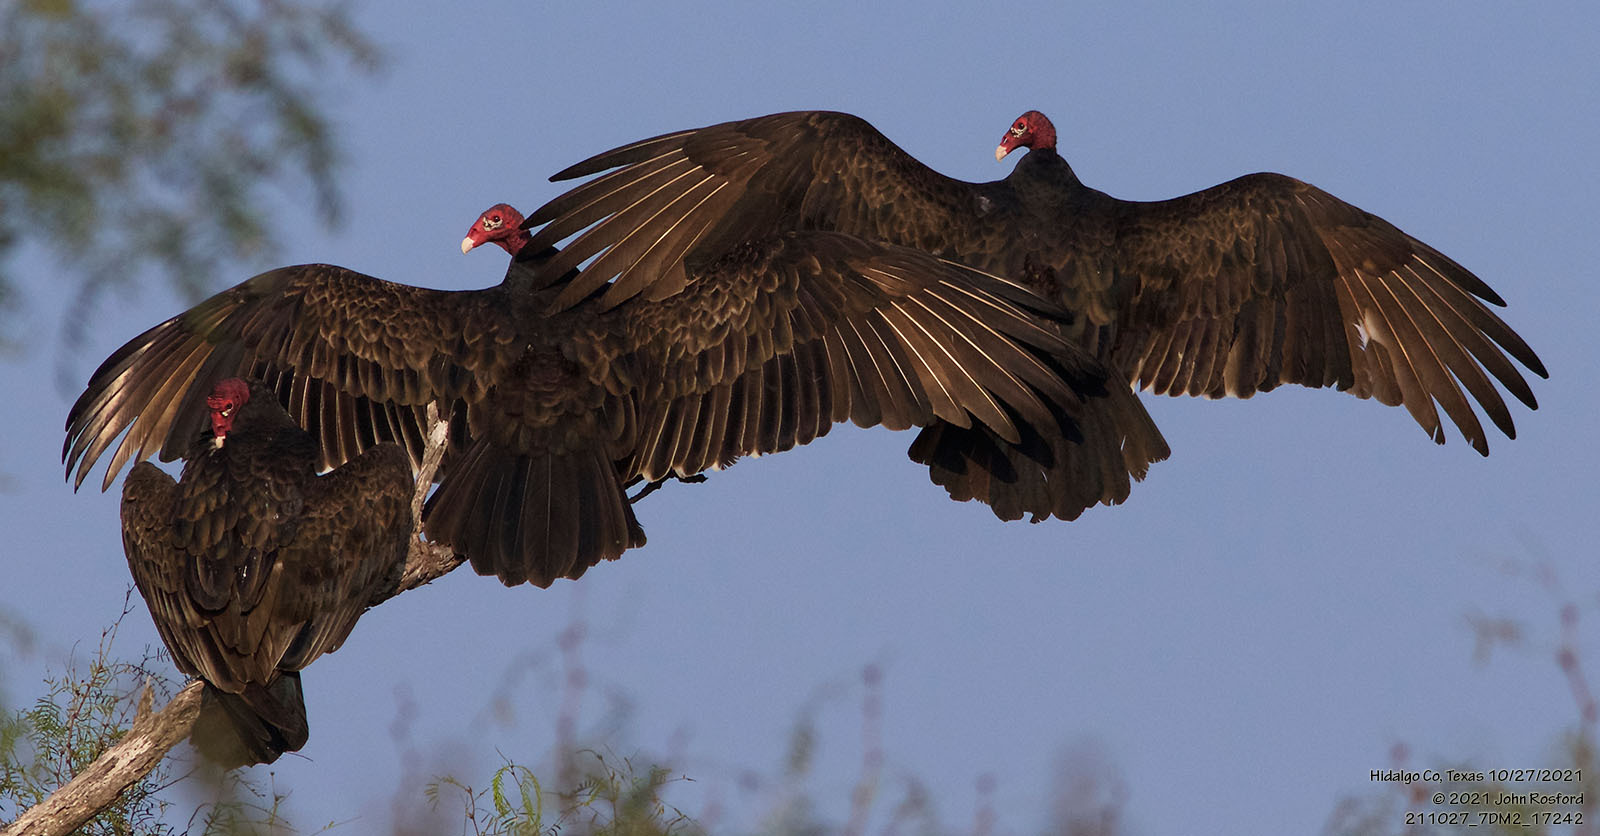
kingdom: Animalia
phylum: Chordata
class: Aves
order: Accipitriformes
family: Cathartidae
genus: Cathartes
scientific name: Cathartes aura
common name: Turkey vulture
